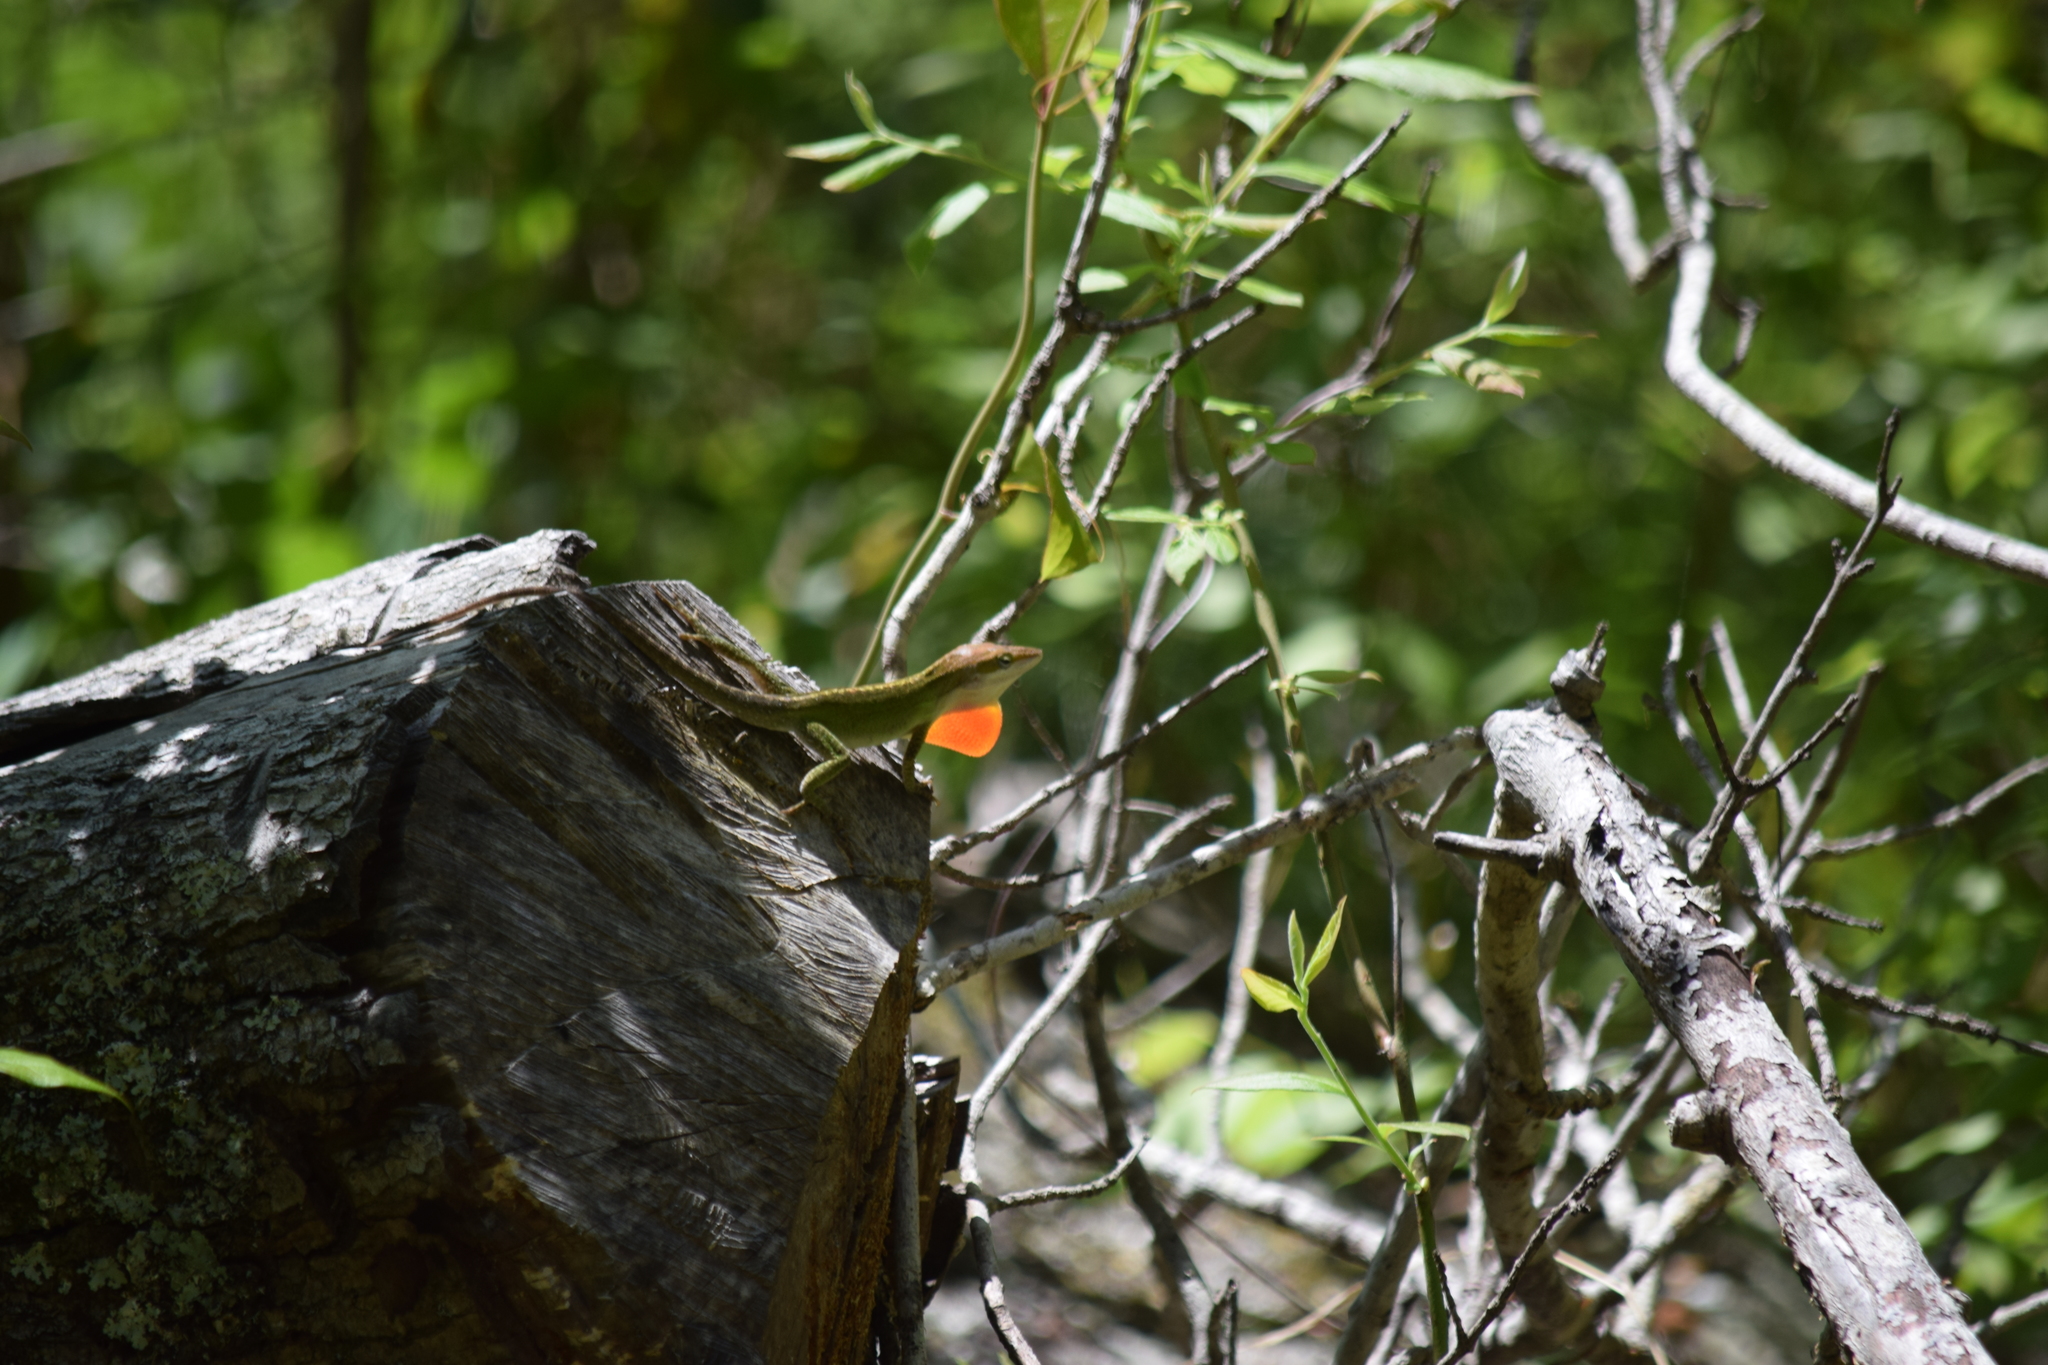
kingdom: Animalia
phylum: Chordata
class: Squamata
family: Dactyloidae
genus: Anolis
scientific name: Anolis carolinensis
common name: Green anole
